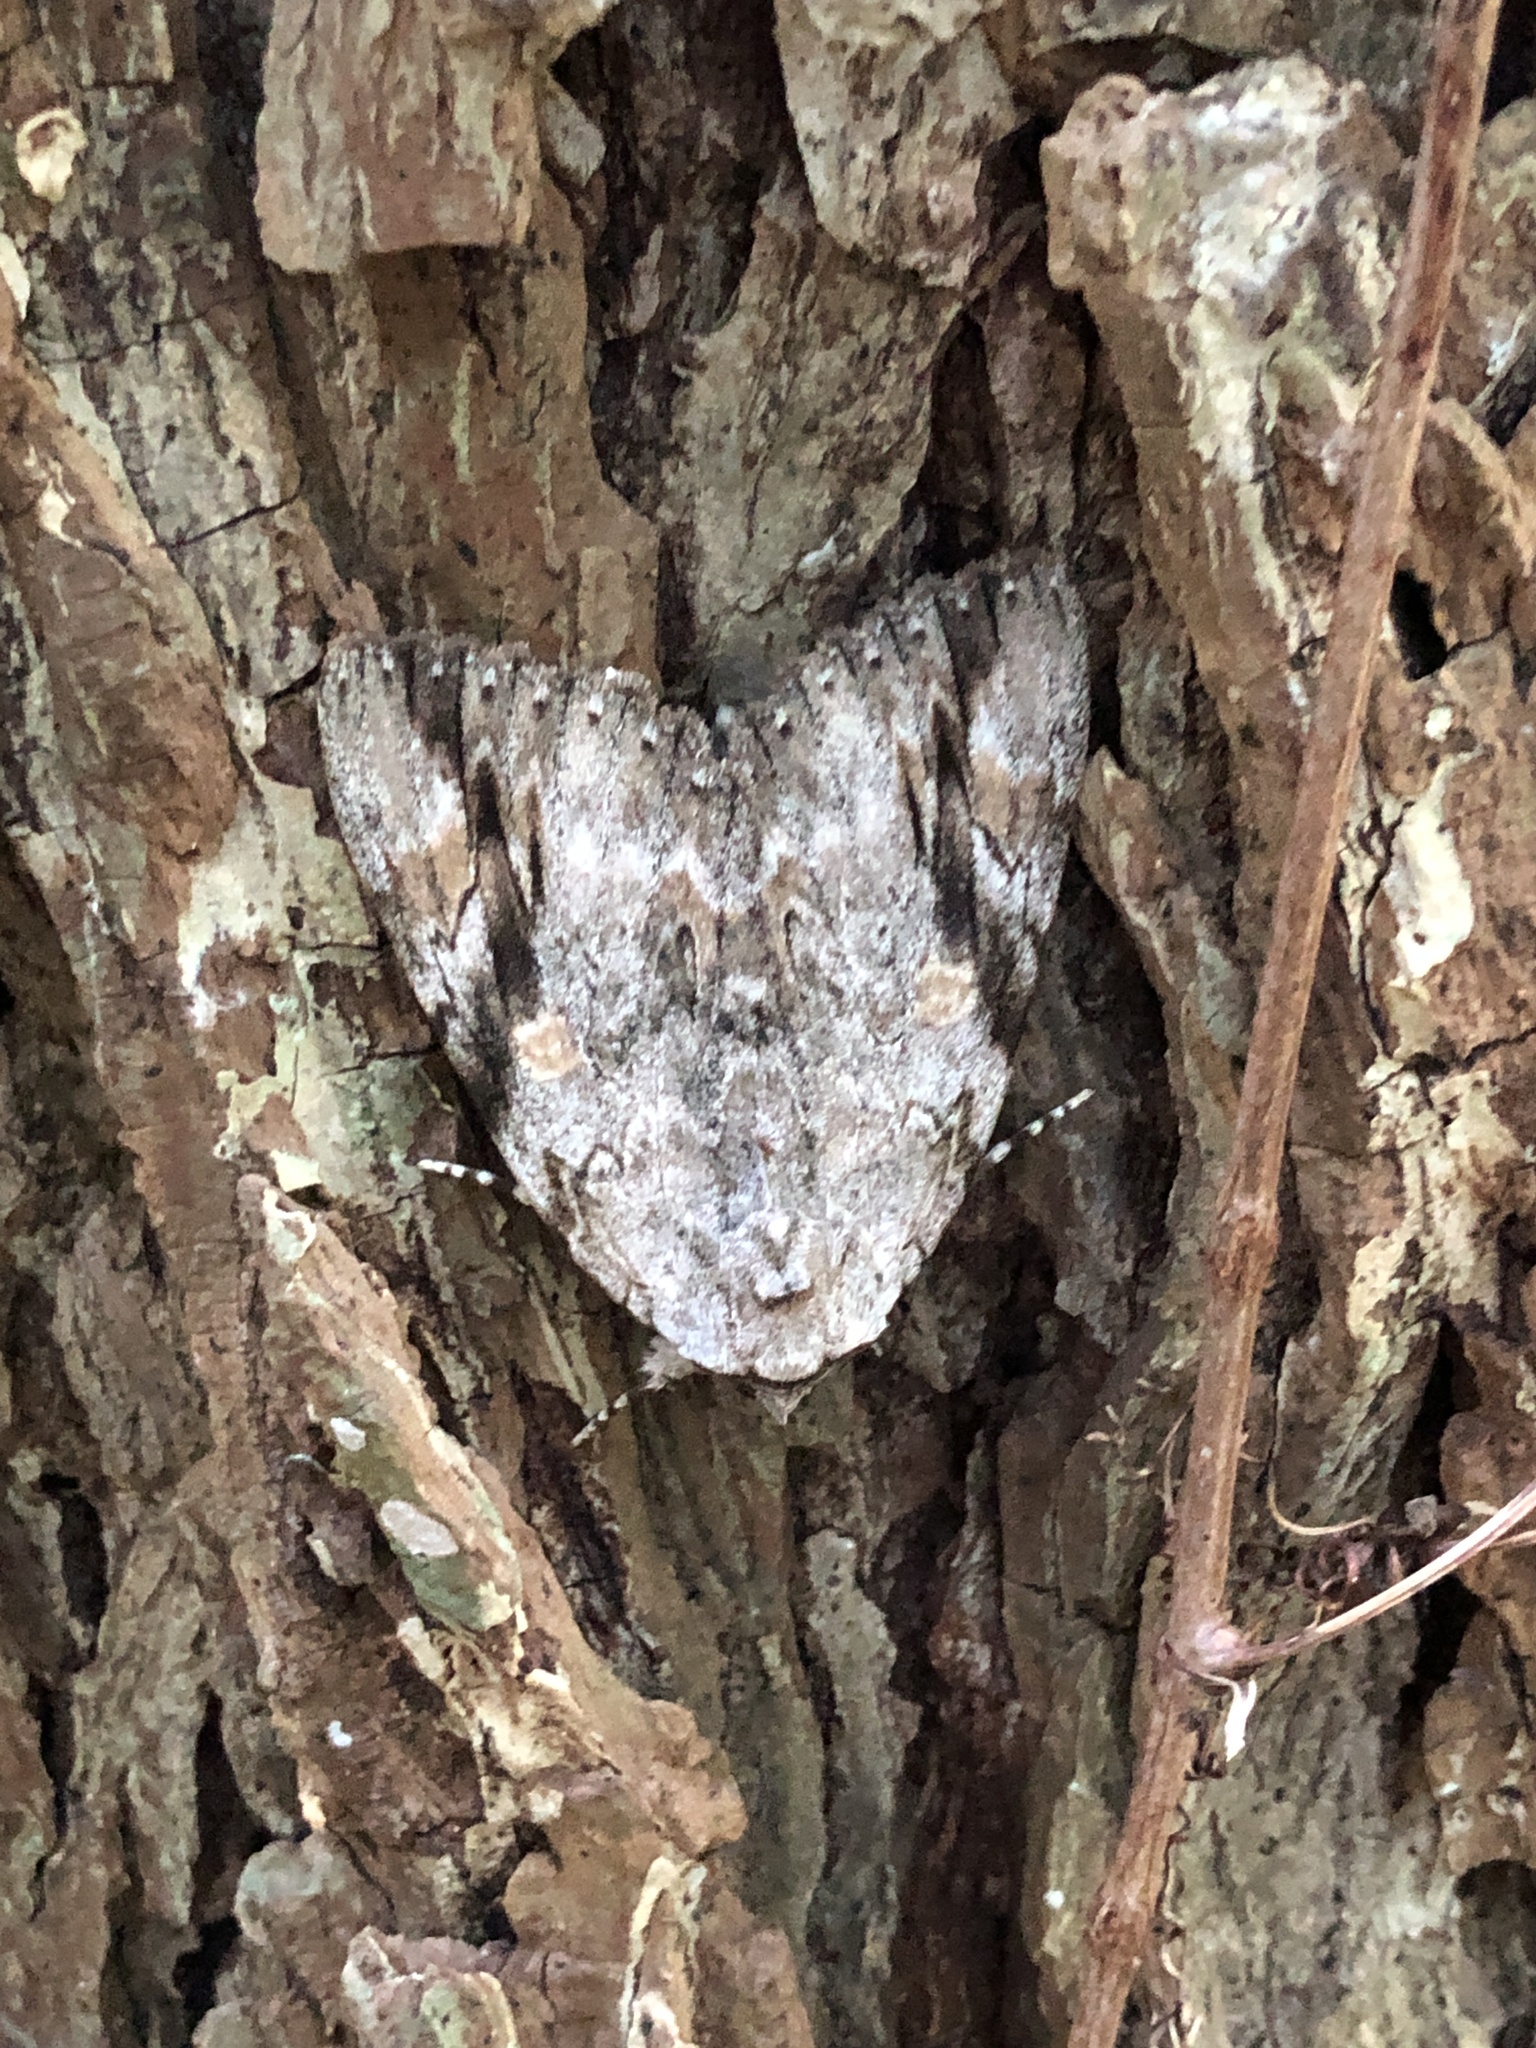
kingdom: Animalia
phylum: Arthropoda
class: Insecta
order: Lepidoptera
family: Erebidae
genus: Catocala
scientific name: Catocala maestosa
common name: Sad underwing
